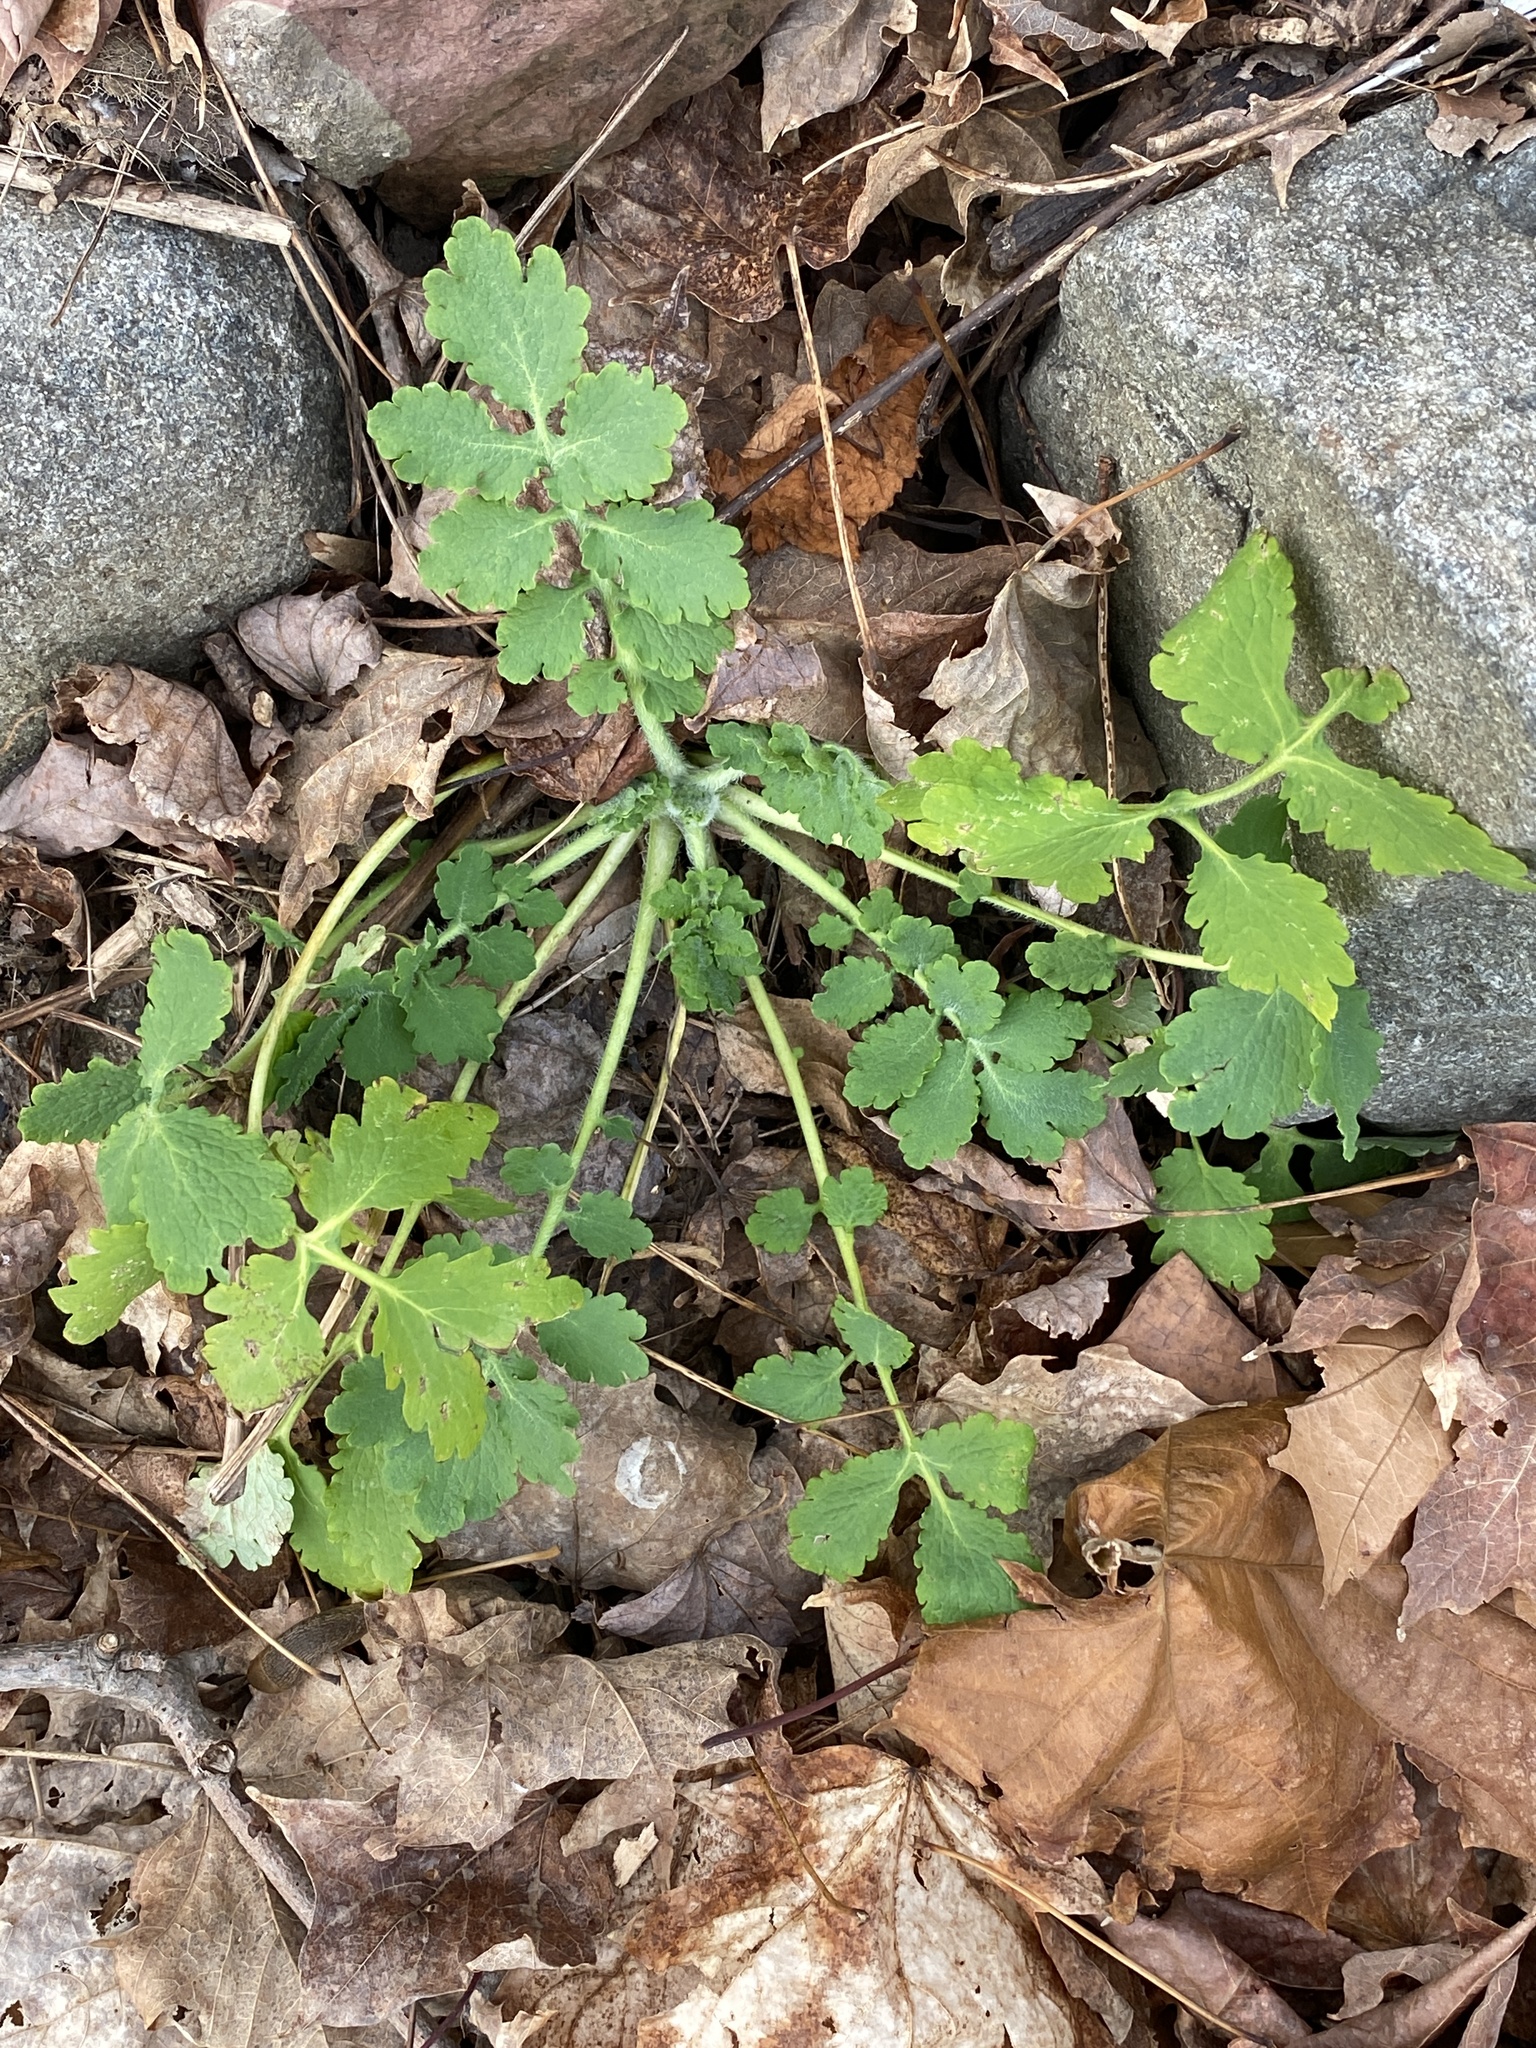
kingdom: Plantae
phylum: Tracheophyta
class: Magnoliopsida
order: Ranunculales
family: Papaveraceae
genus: Chelidonium
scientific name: Chelidonium majus
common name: Greater celandine
